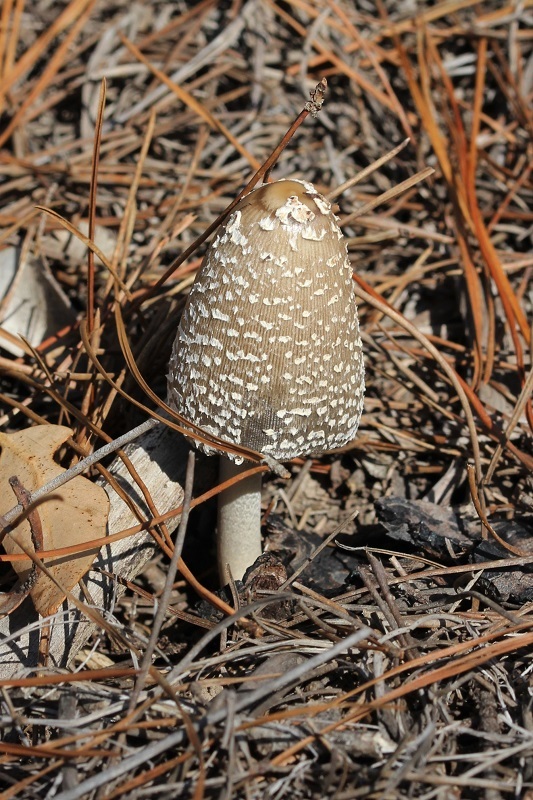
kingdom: Fungi
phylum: Basidiomycota
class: Agaricomycetes
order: Agaricales
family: Psathyrellaceae
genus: Coprinopsis
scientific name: Coprinopsis picacea
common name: Magpie inkcap
